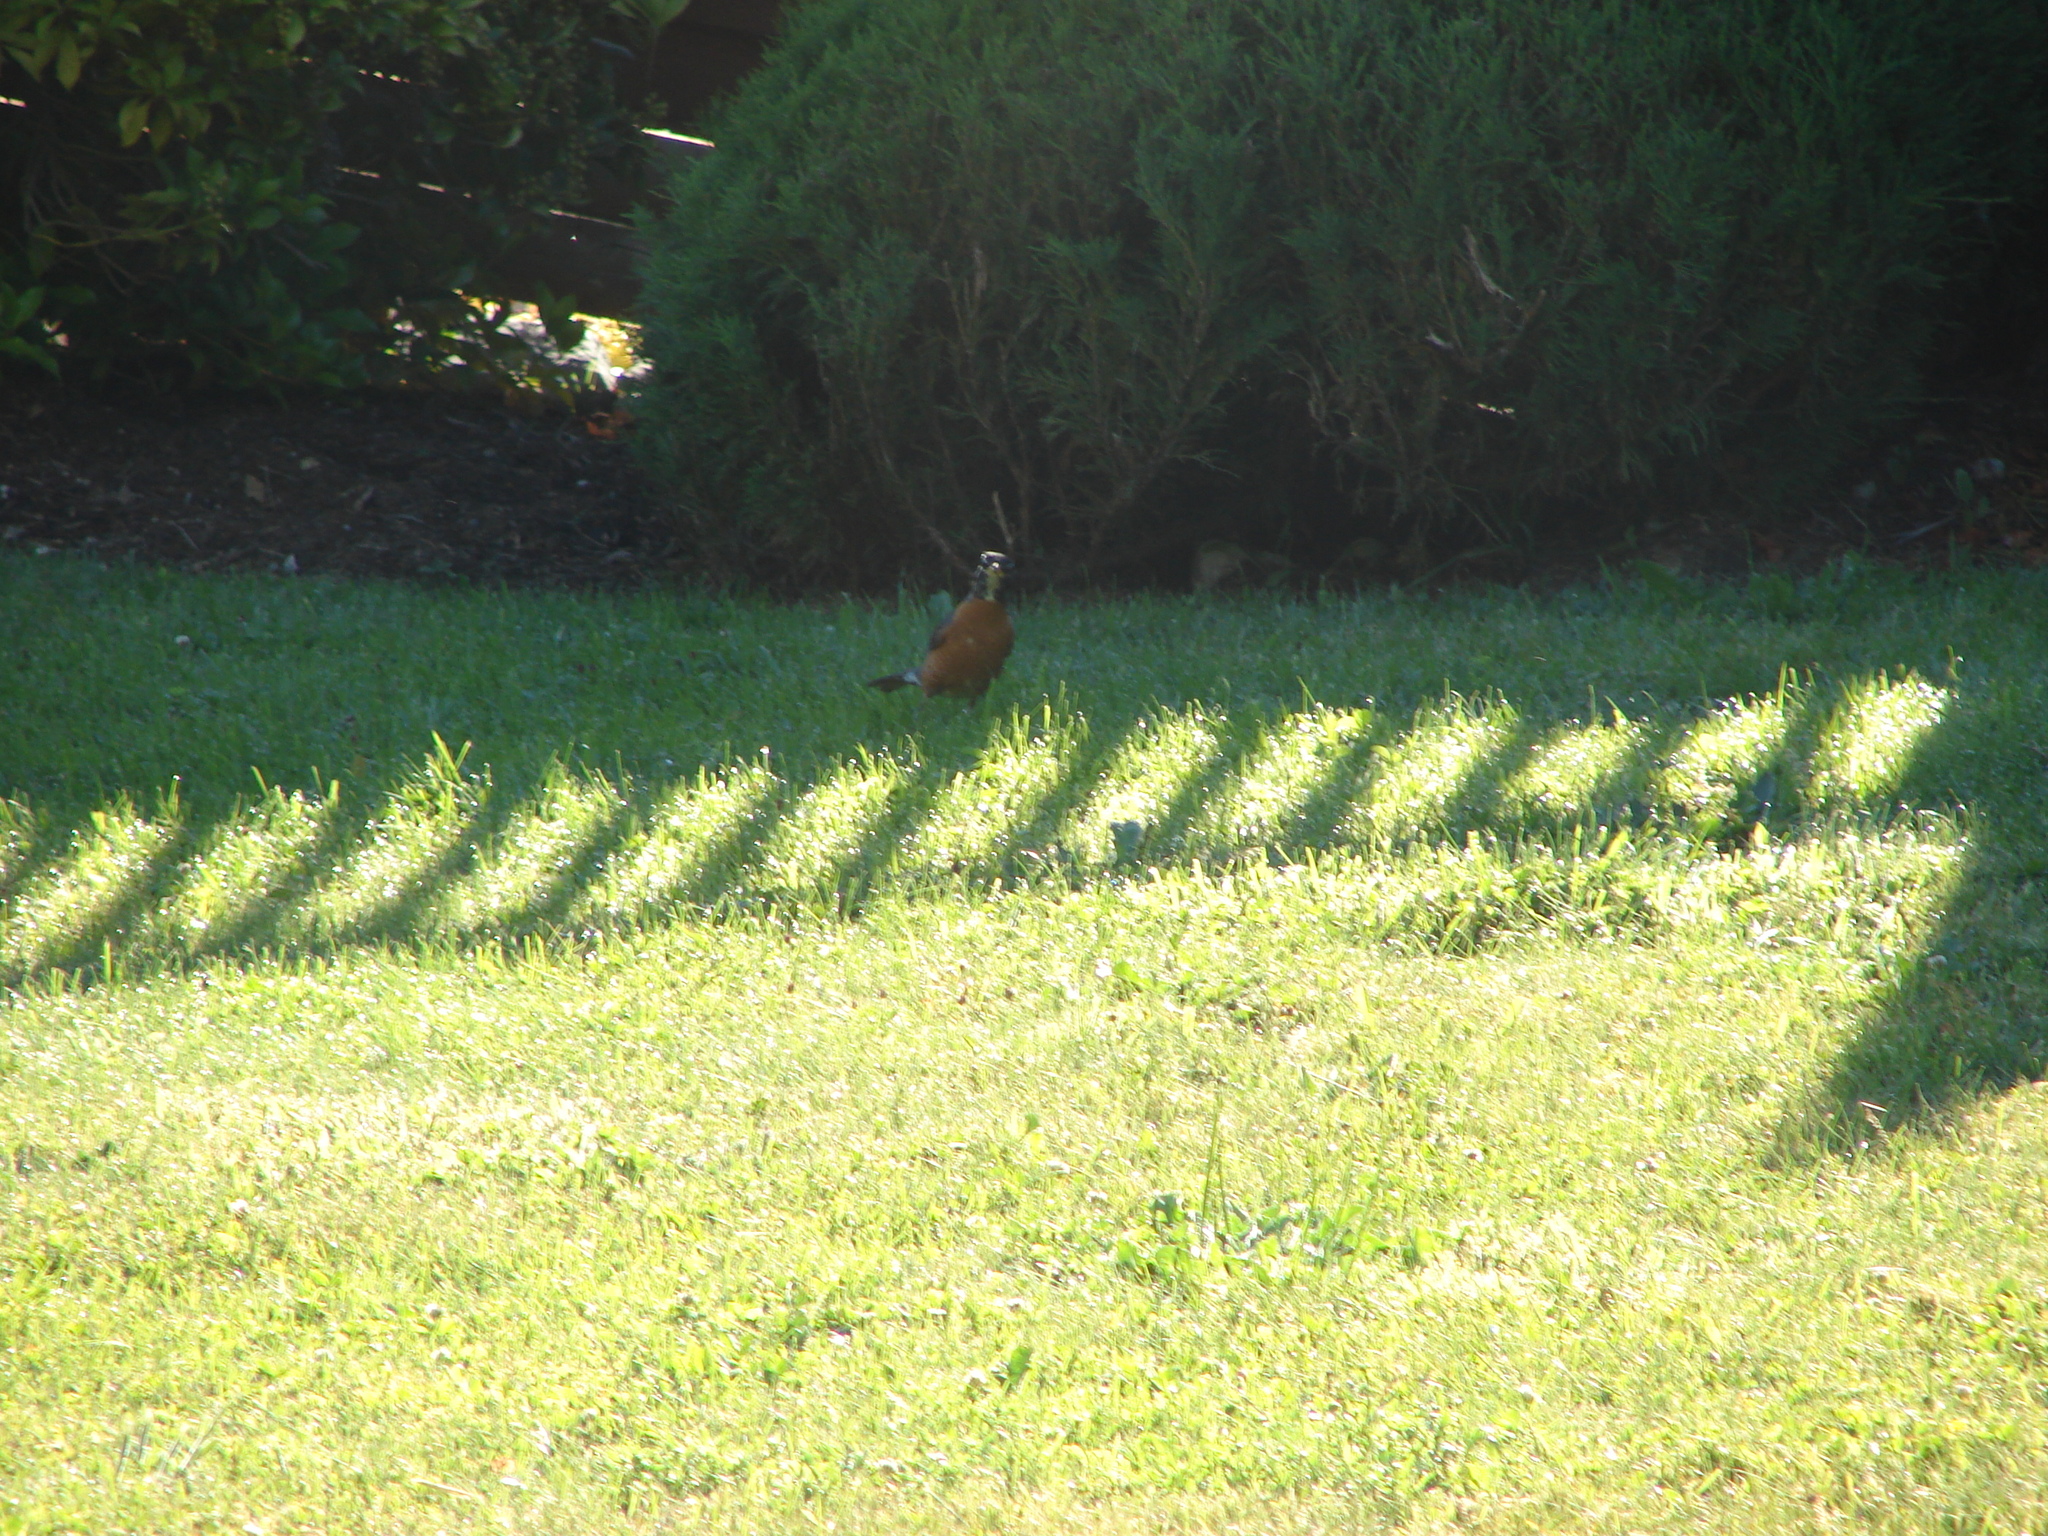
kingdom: Animalia
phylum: Chordata
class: Aves
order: Passeriformes
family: Turdidae
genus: Turdus
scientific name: Turdus migratorius
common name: American robin
